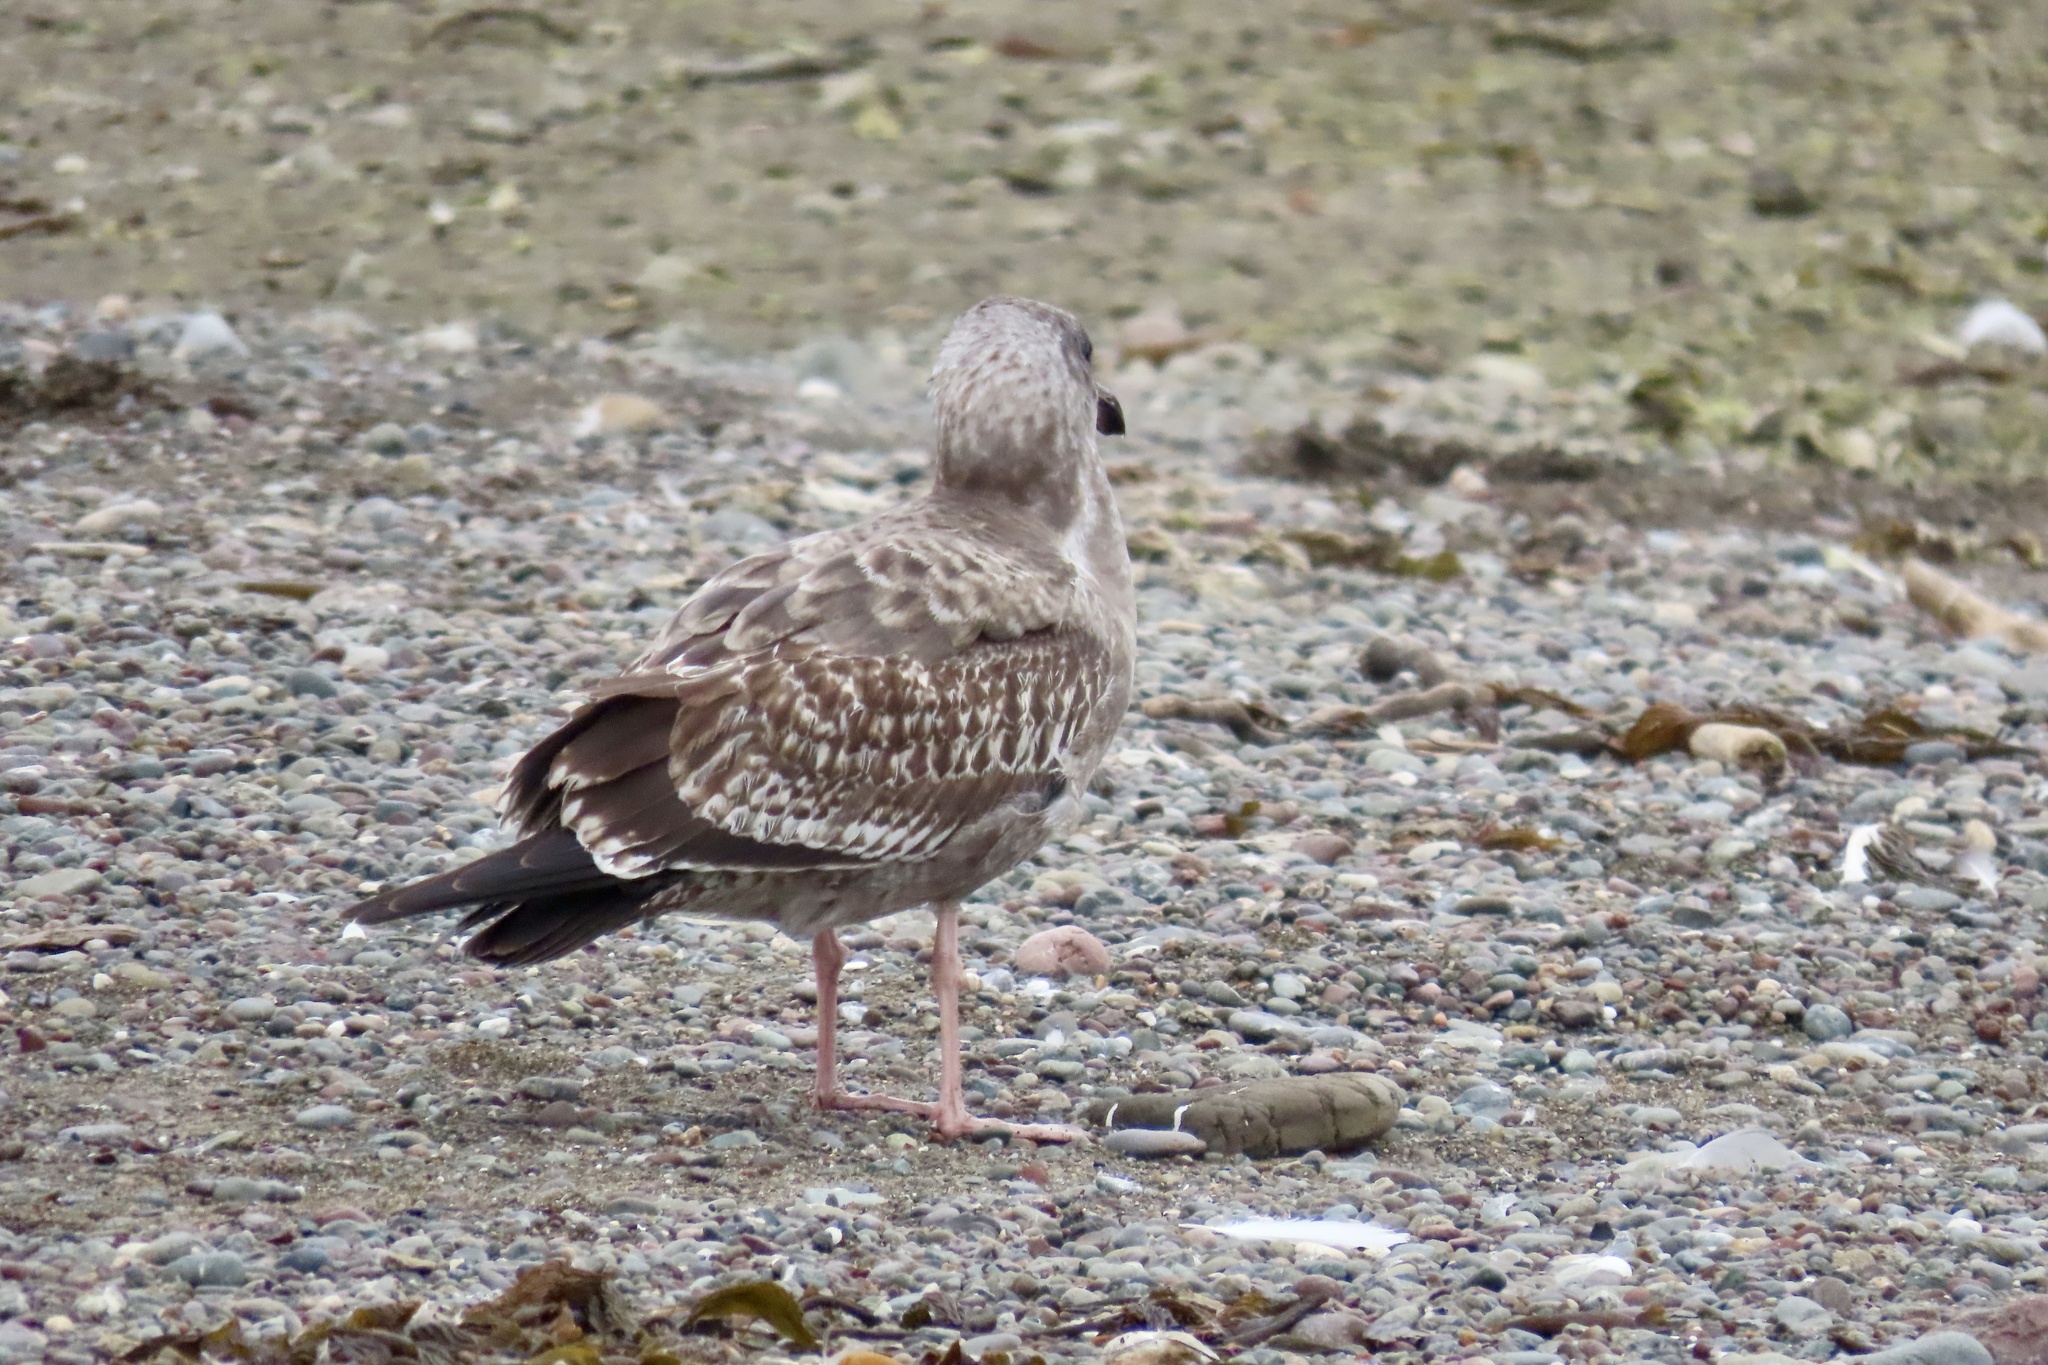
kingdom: Animalia
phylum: Chordata
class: Aves
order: Charadriiformes
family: Laridae
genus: Larus
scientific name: Larus occidentalis
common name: Western gull
